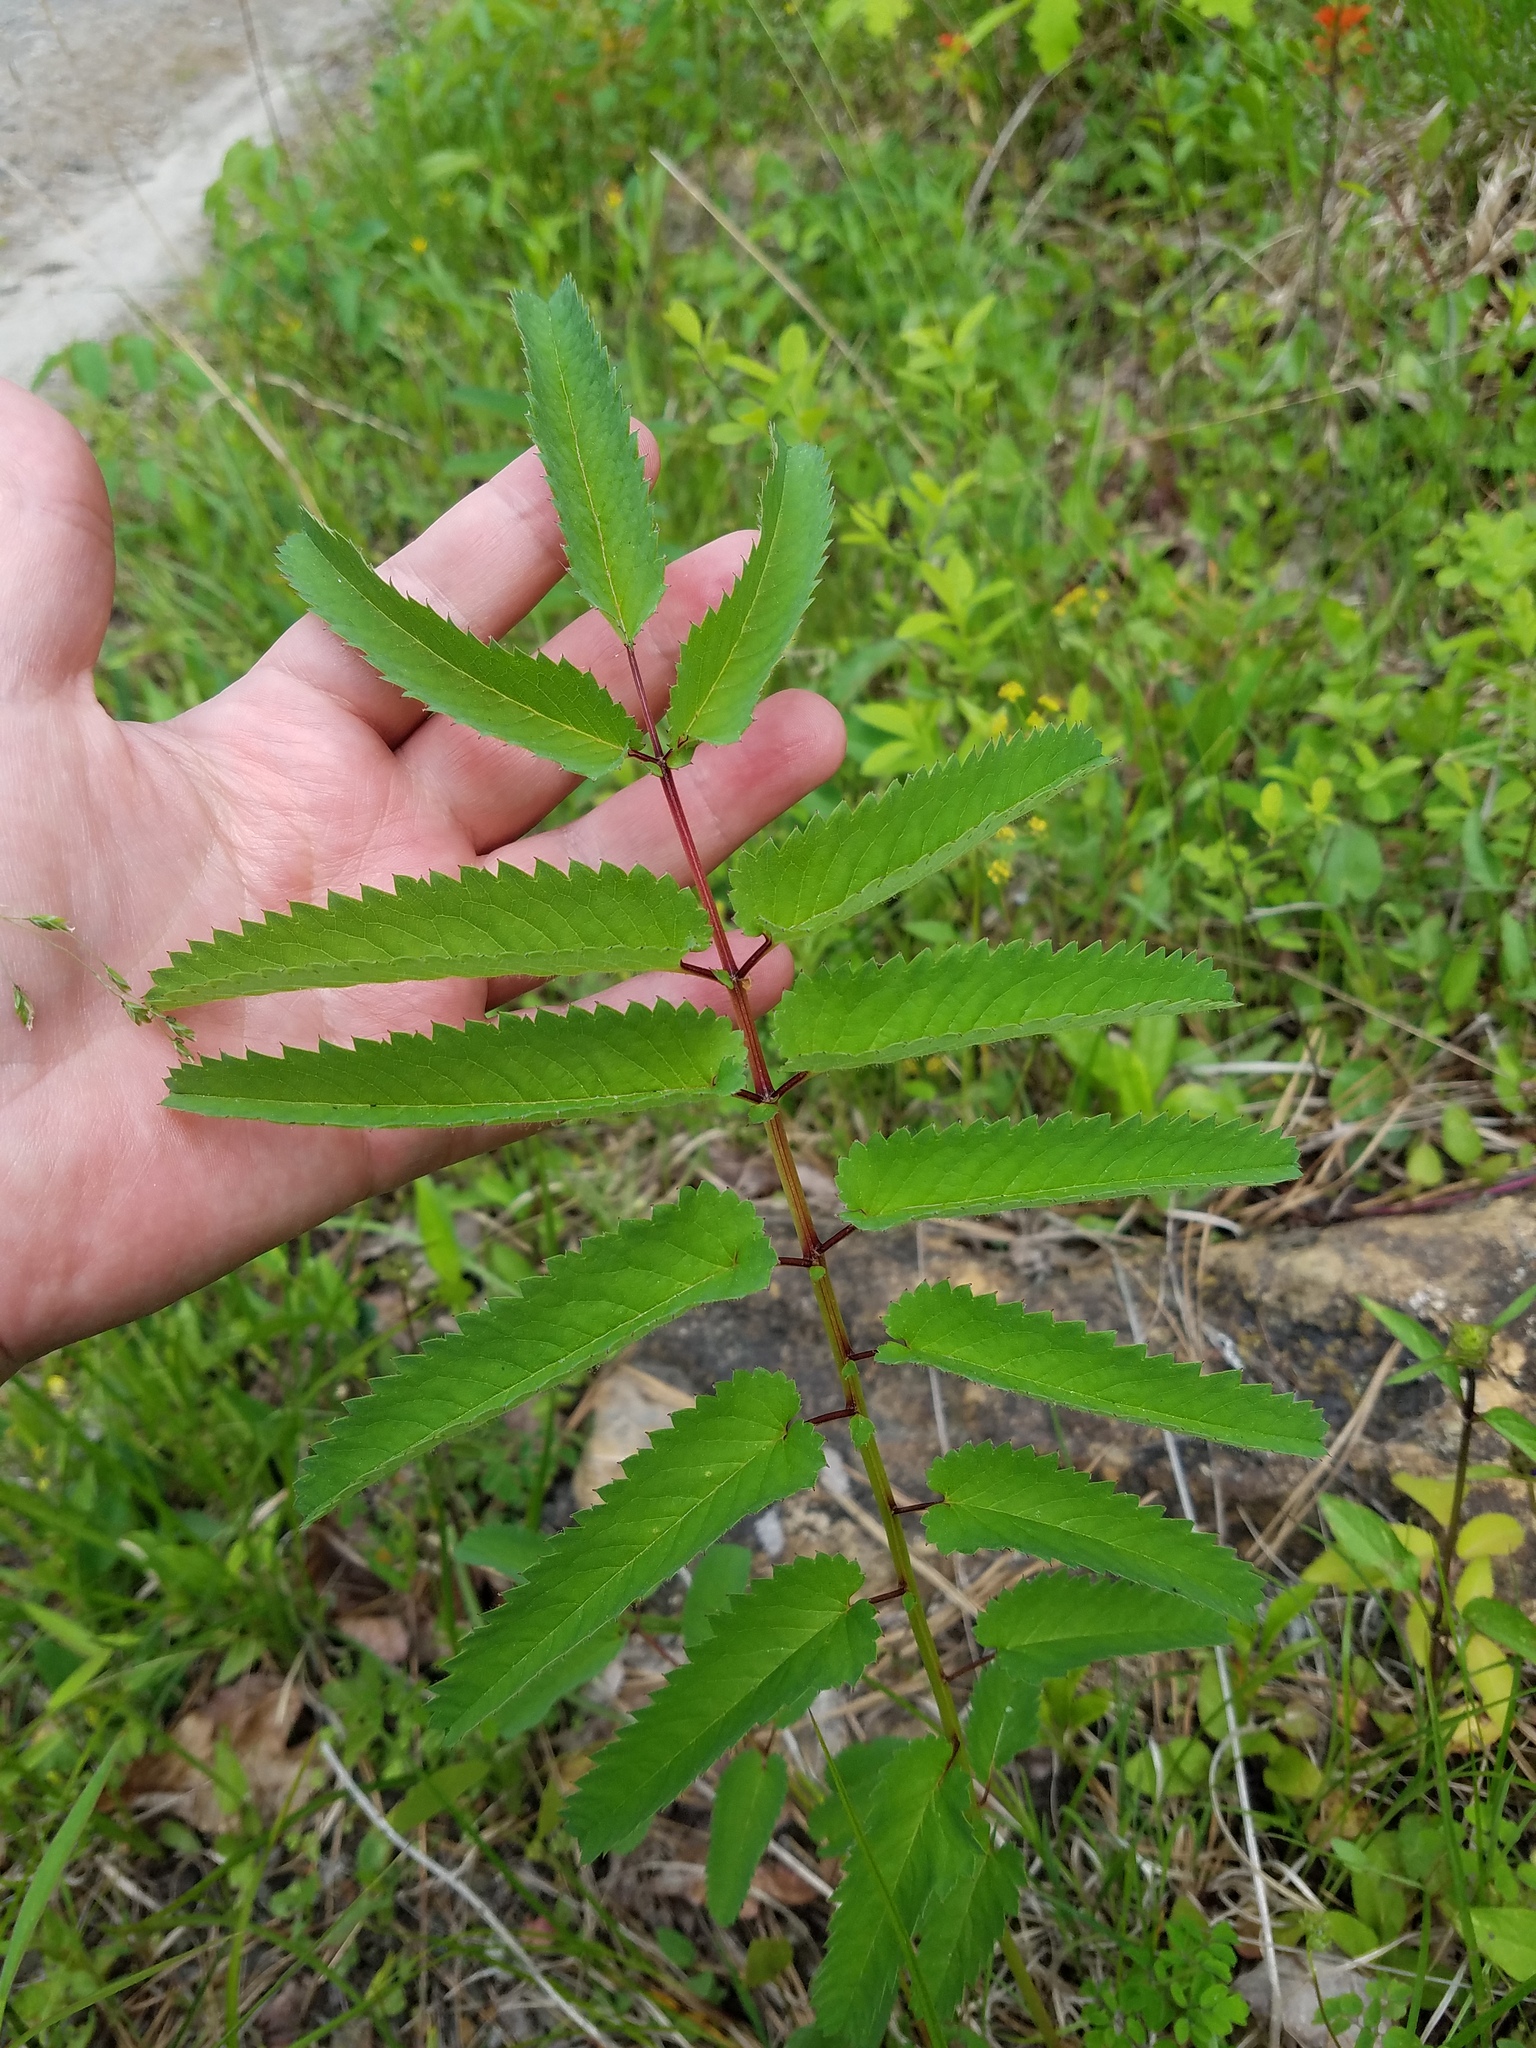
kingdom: Plantae
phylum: Tracheophyta
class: Magnoliopsida
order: Rosales
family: Rosaceae
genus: Sanguisorba
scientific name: Sanguisorba canadensis
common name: White burnet
